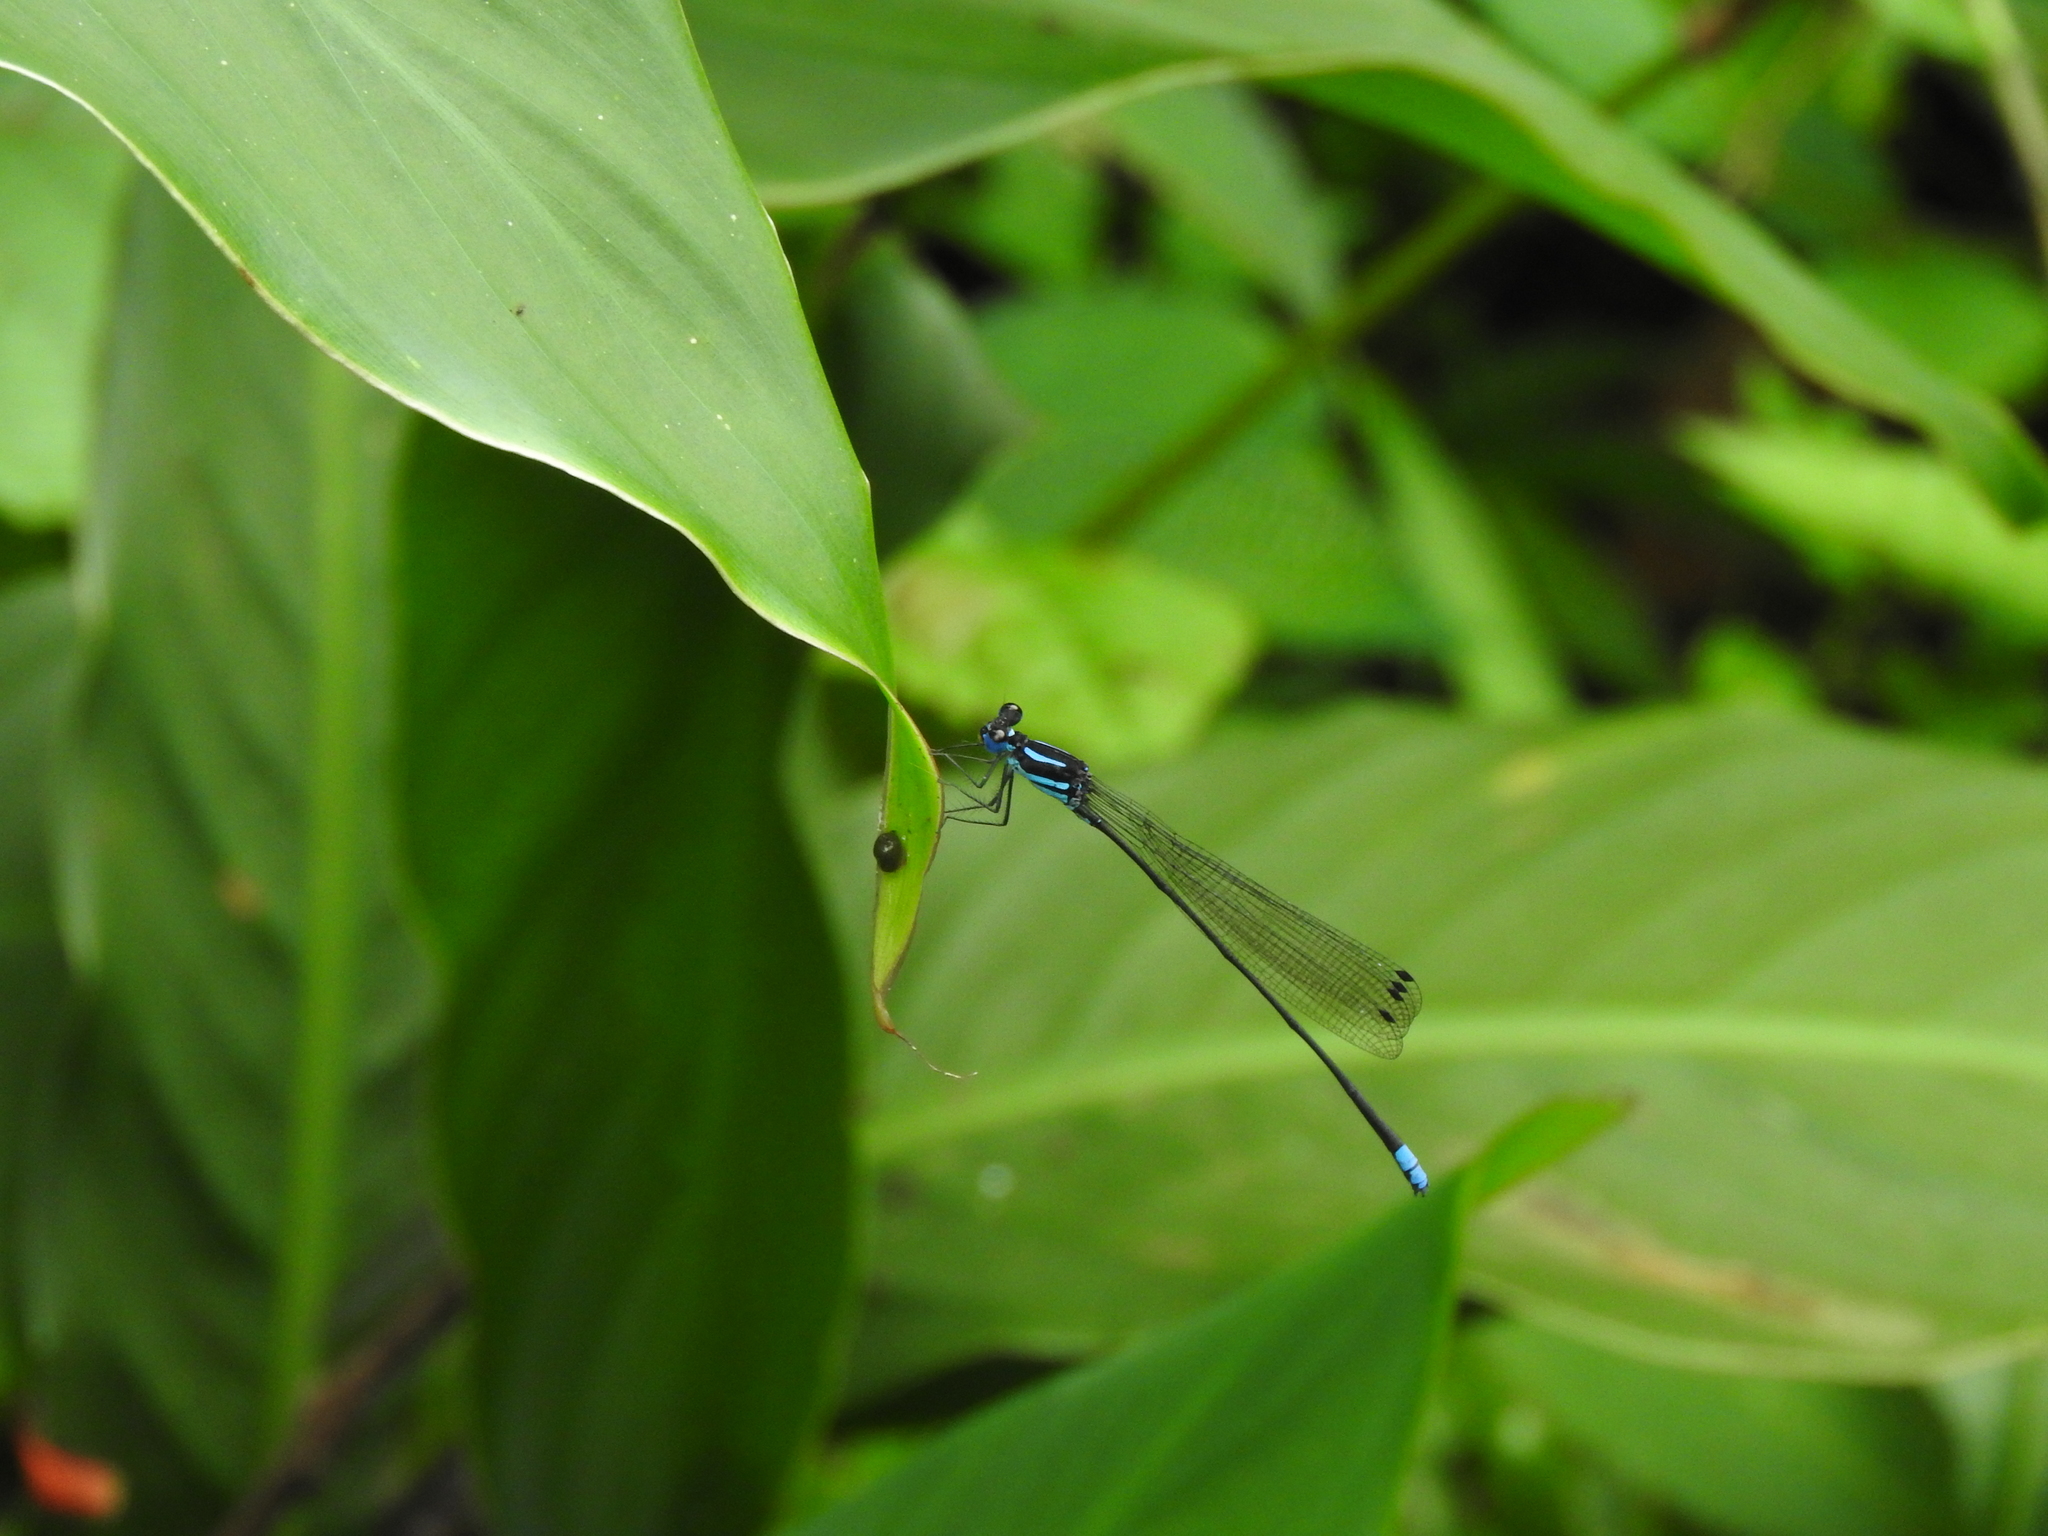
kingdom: Animalia
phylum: Arthropoda
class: Insecta
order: Odonata
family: Platycnemididae
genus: Esme
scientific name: Esme mudiensis
